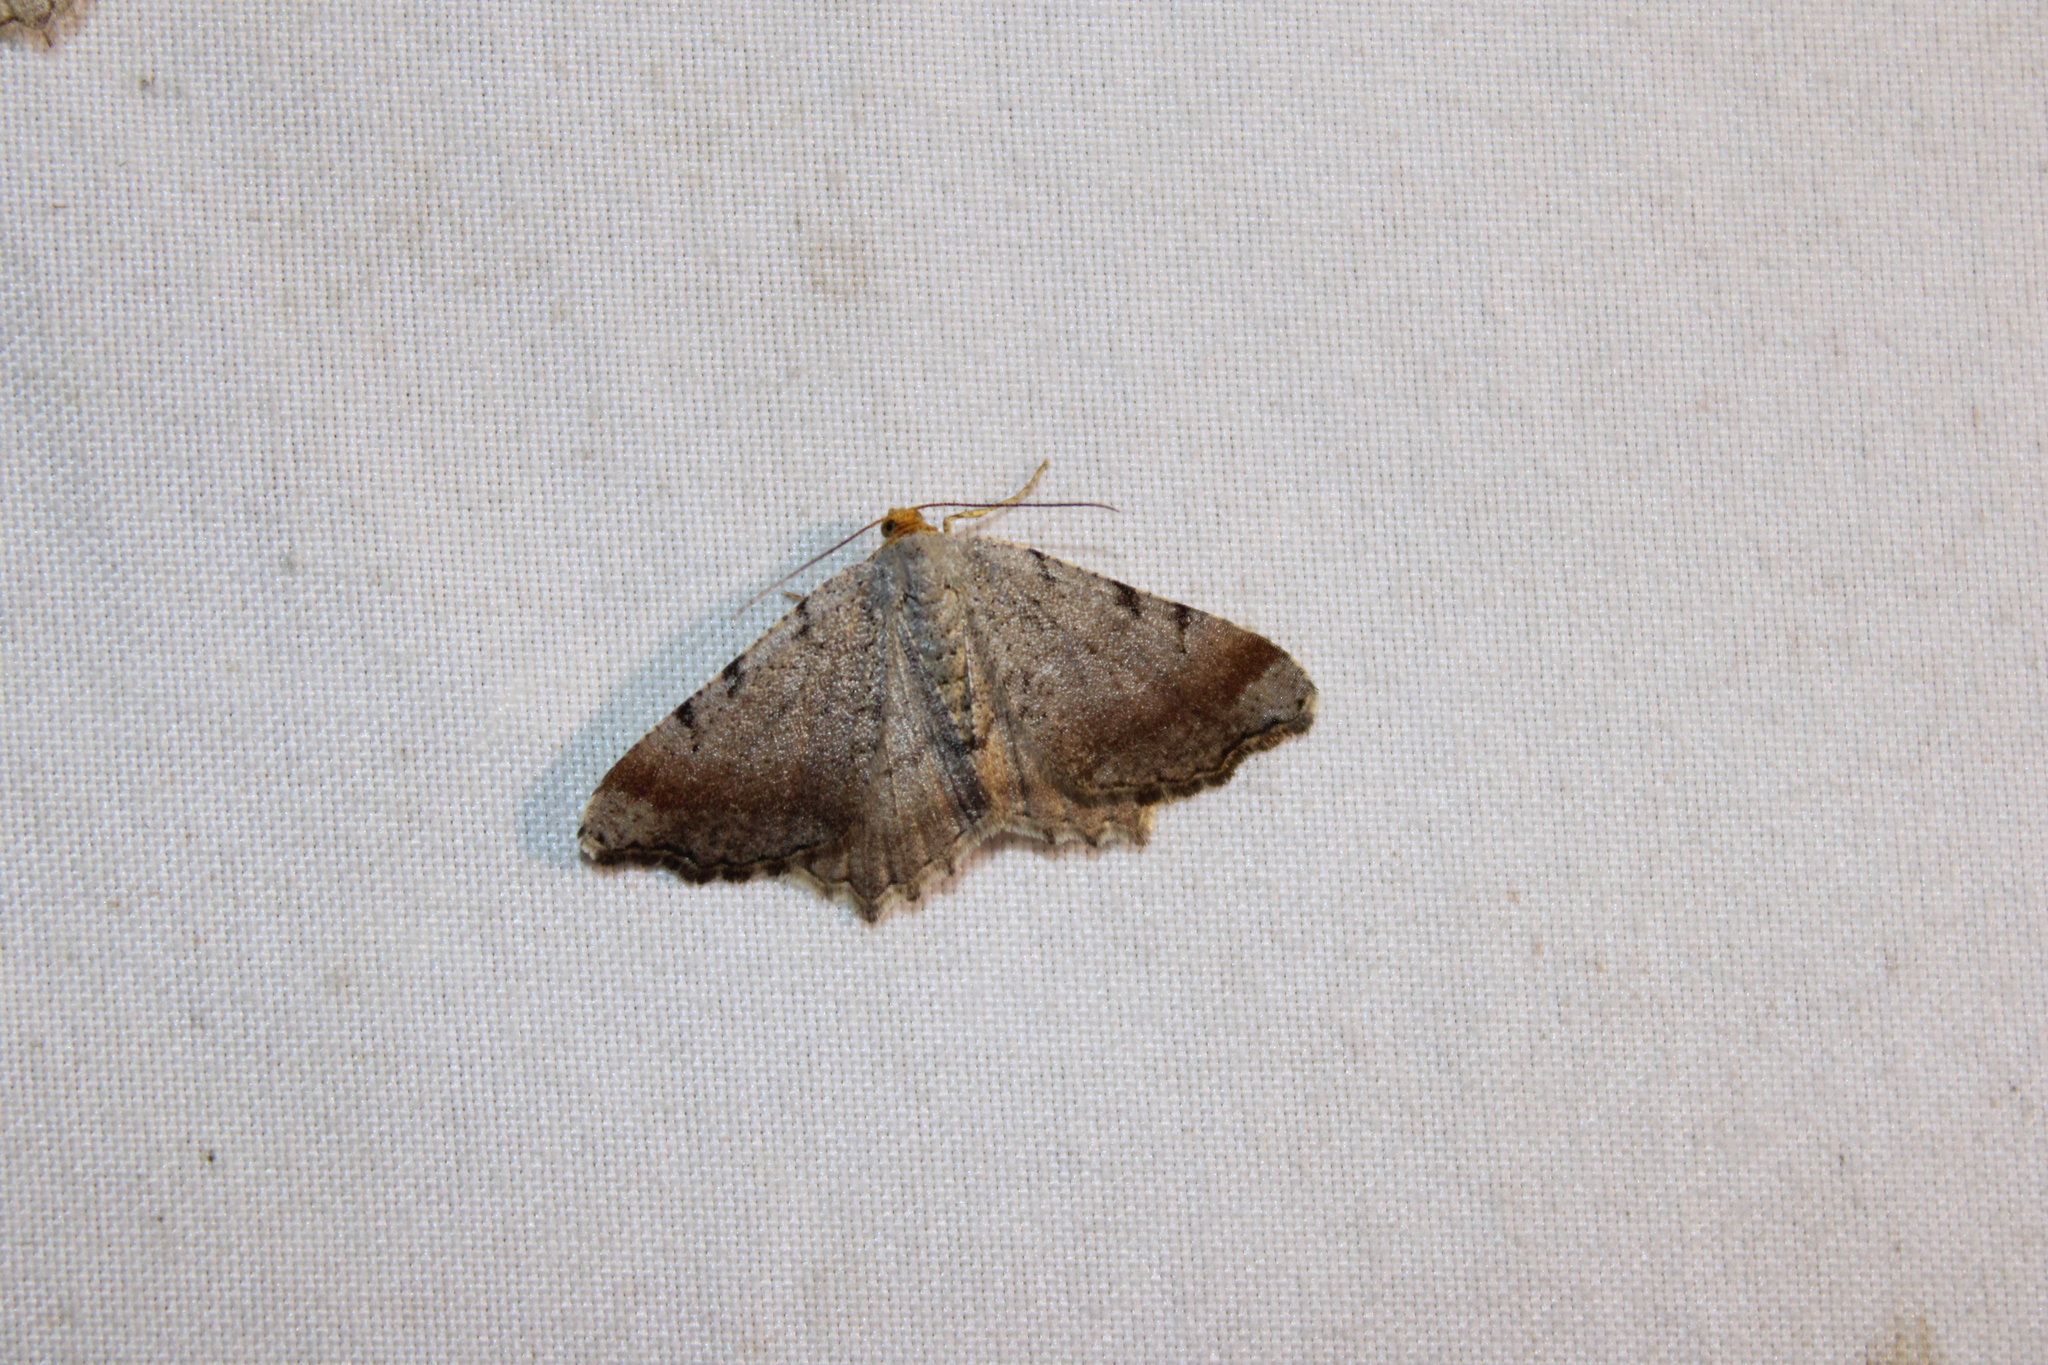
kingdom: Animalia
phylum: Arthropoda
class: Insecta
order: Lepidoptera
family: Geometridae
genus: Macaria
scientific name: Macaria minorata
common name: Minor angle moth
